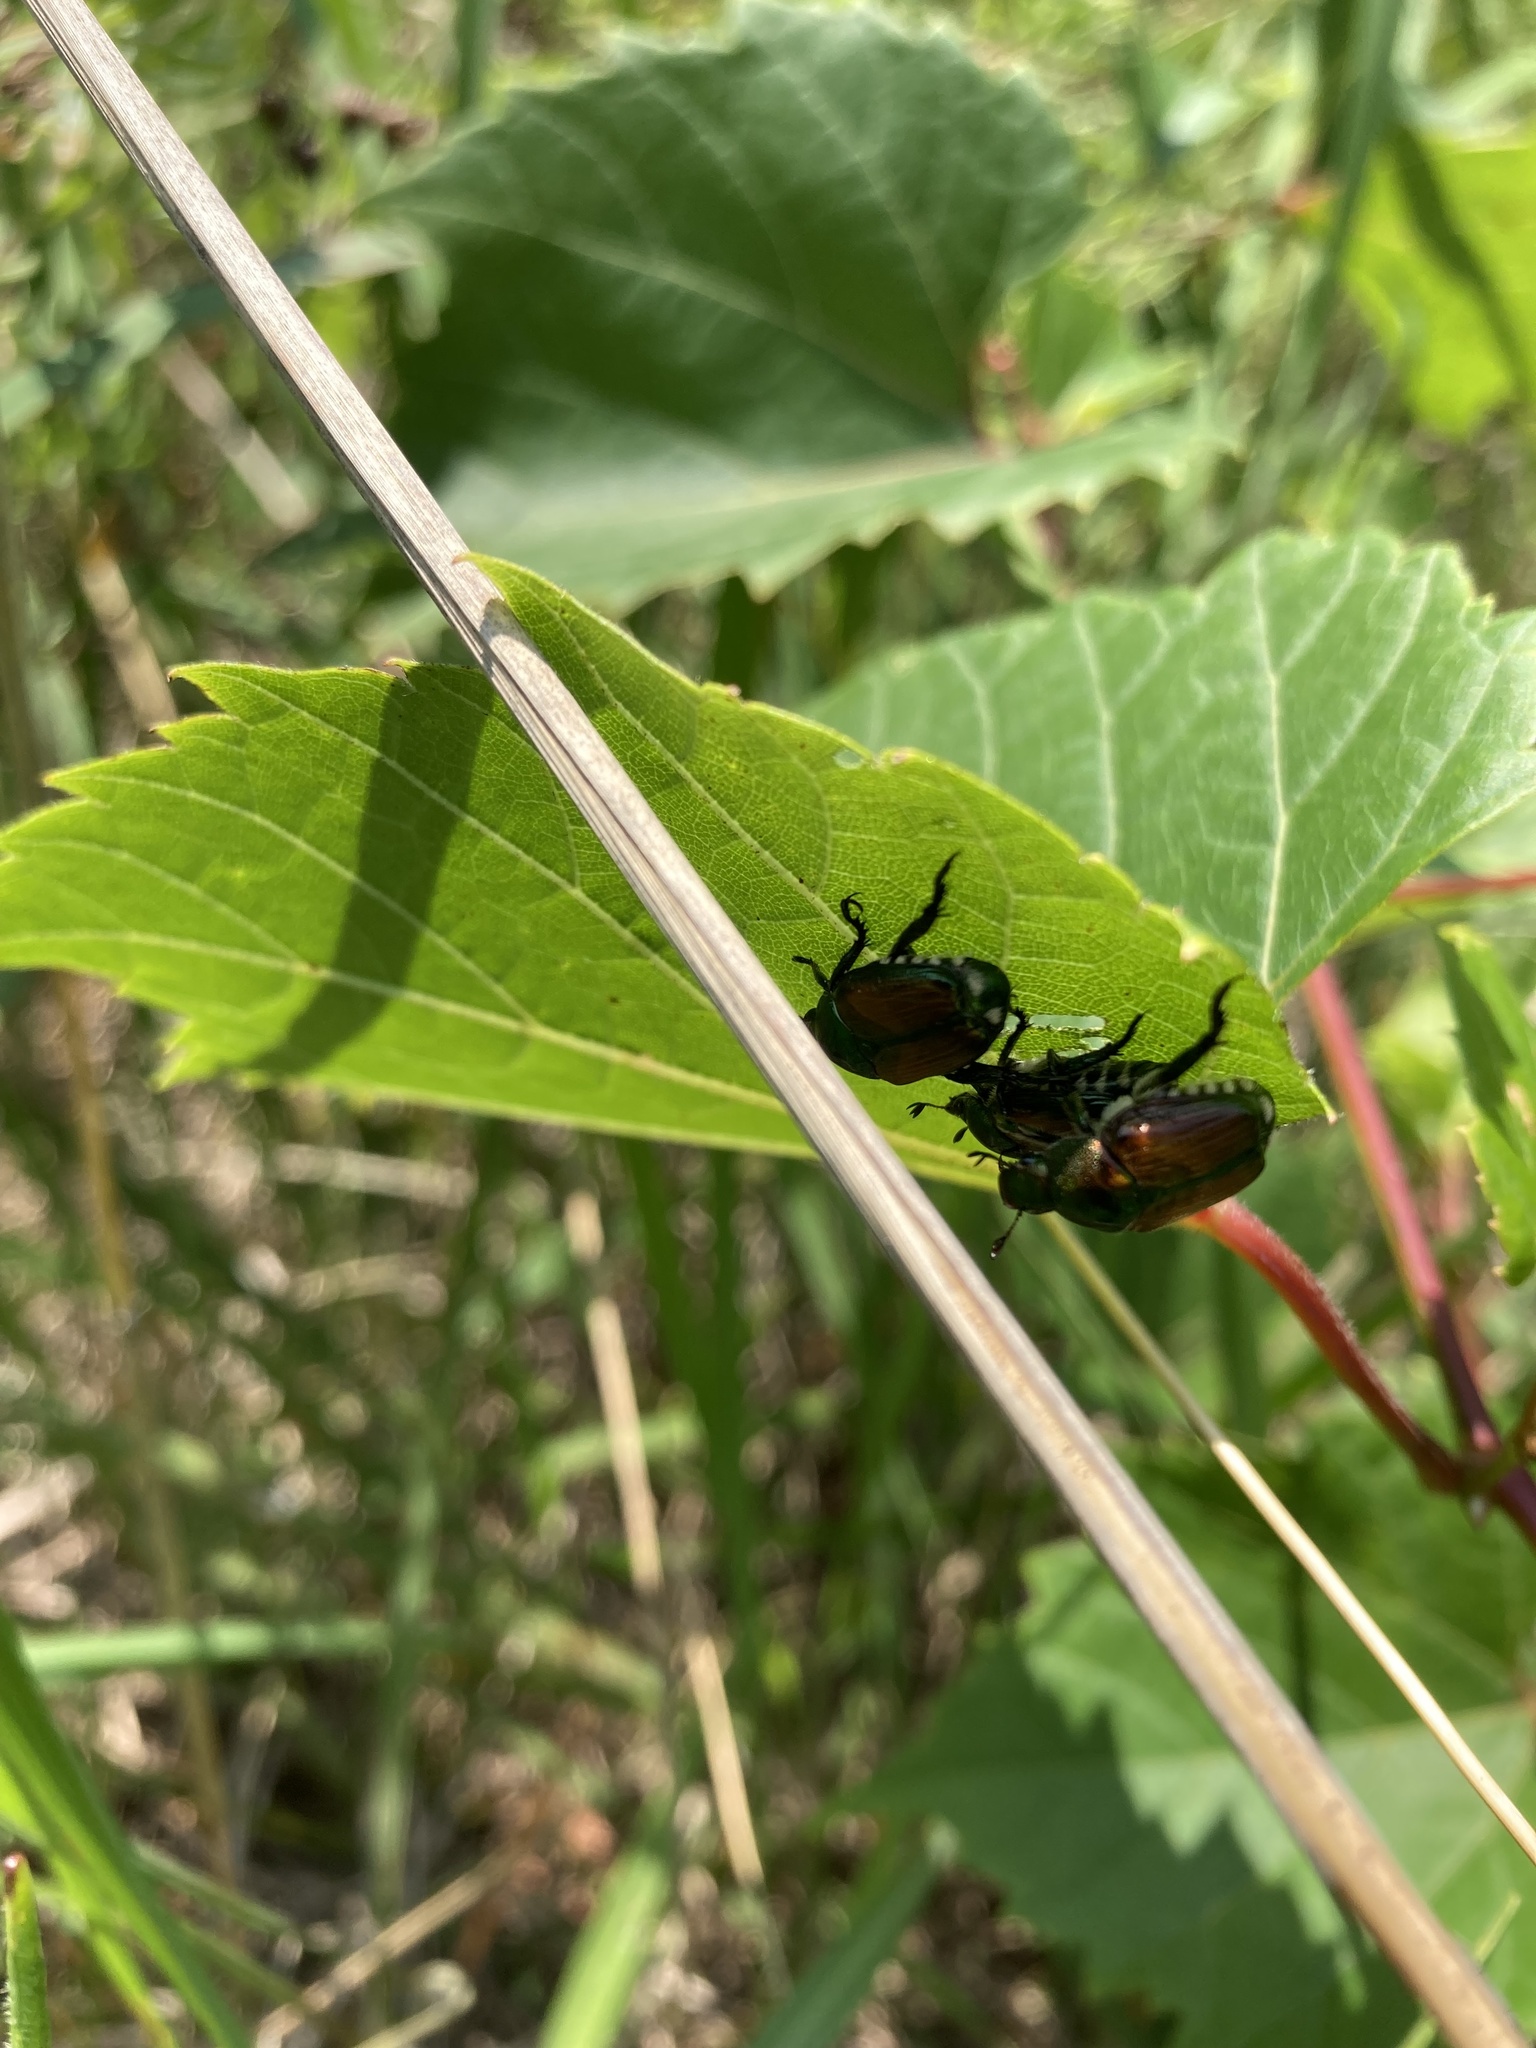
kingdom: Animalia
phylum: Arthropoda
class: Insecta
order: Coleoptera
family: Scarabaeidae
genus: Popillia
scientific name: Popillia japonica
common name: Japanese beetle
